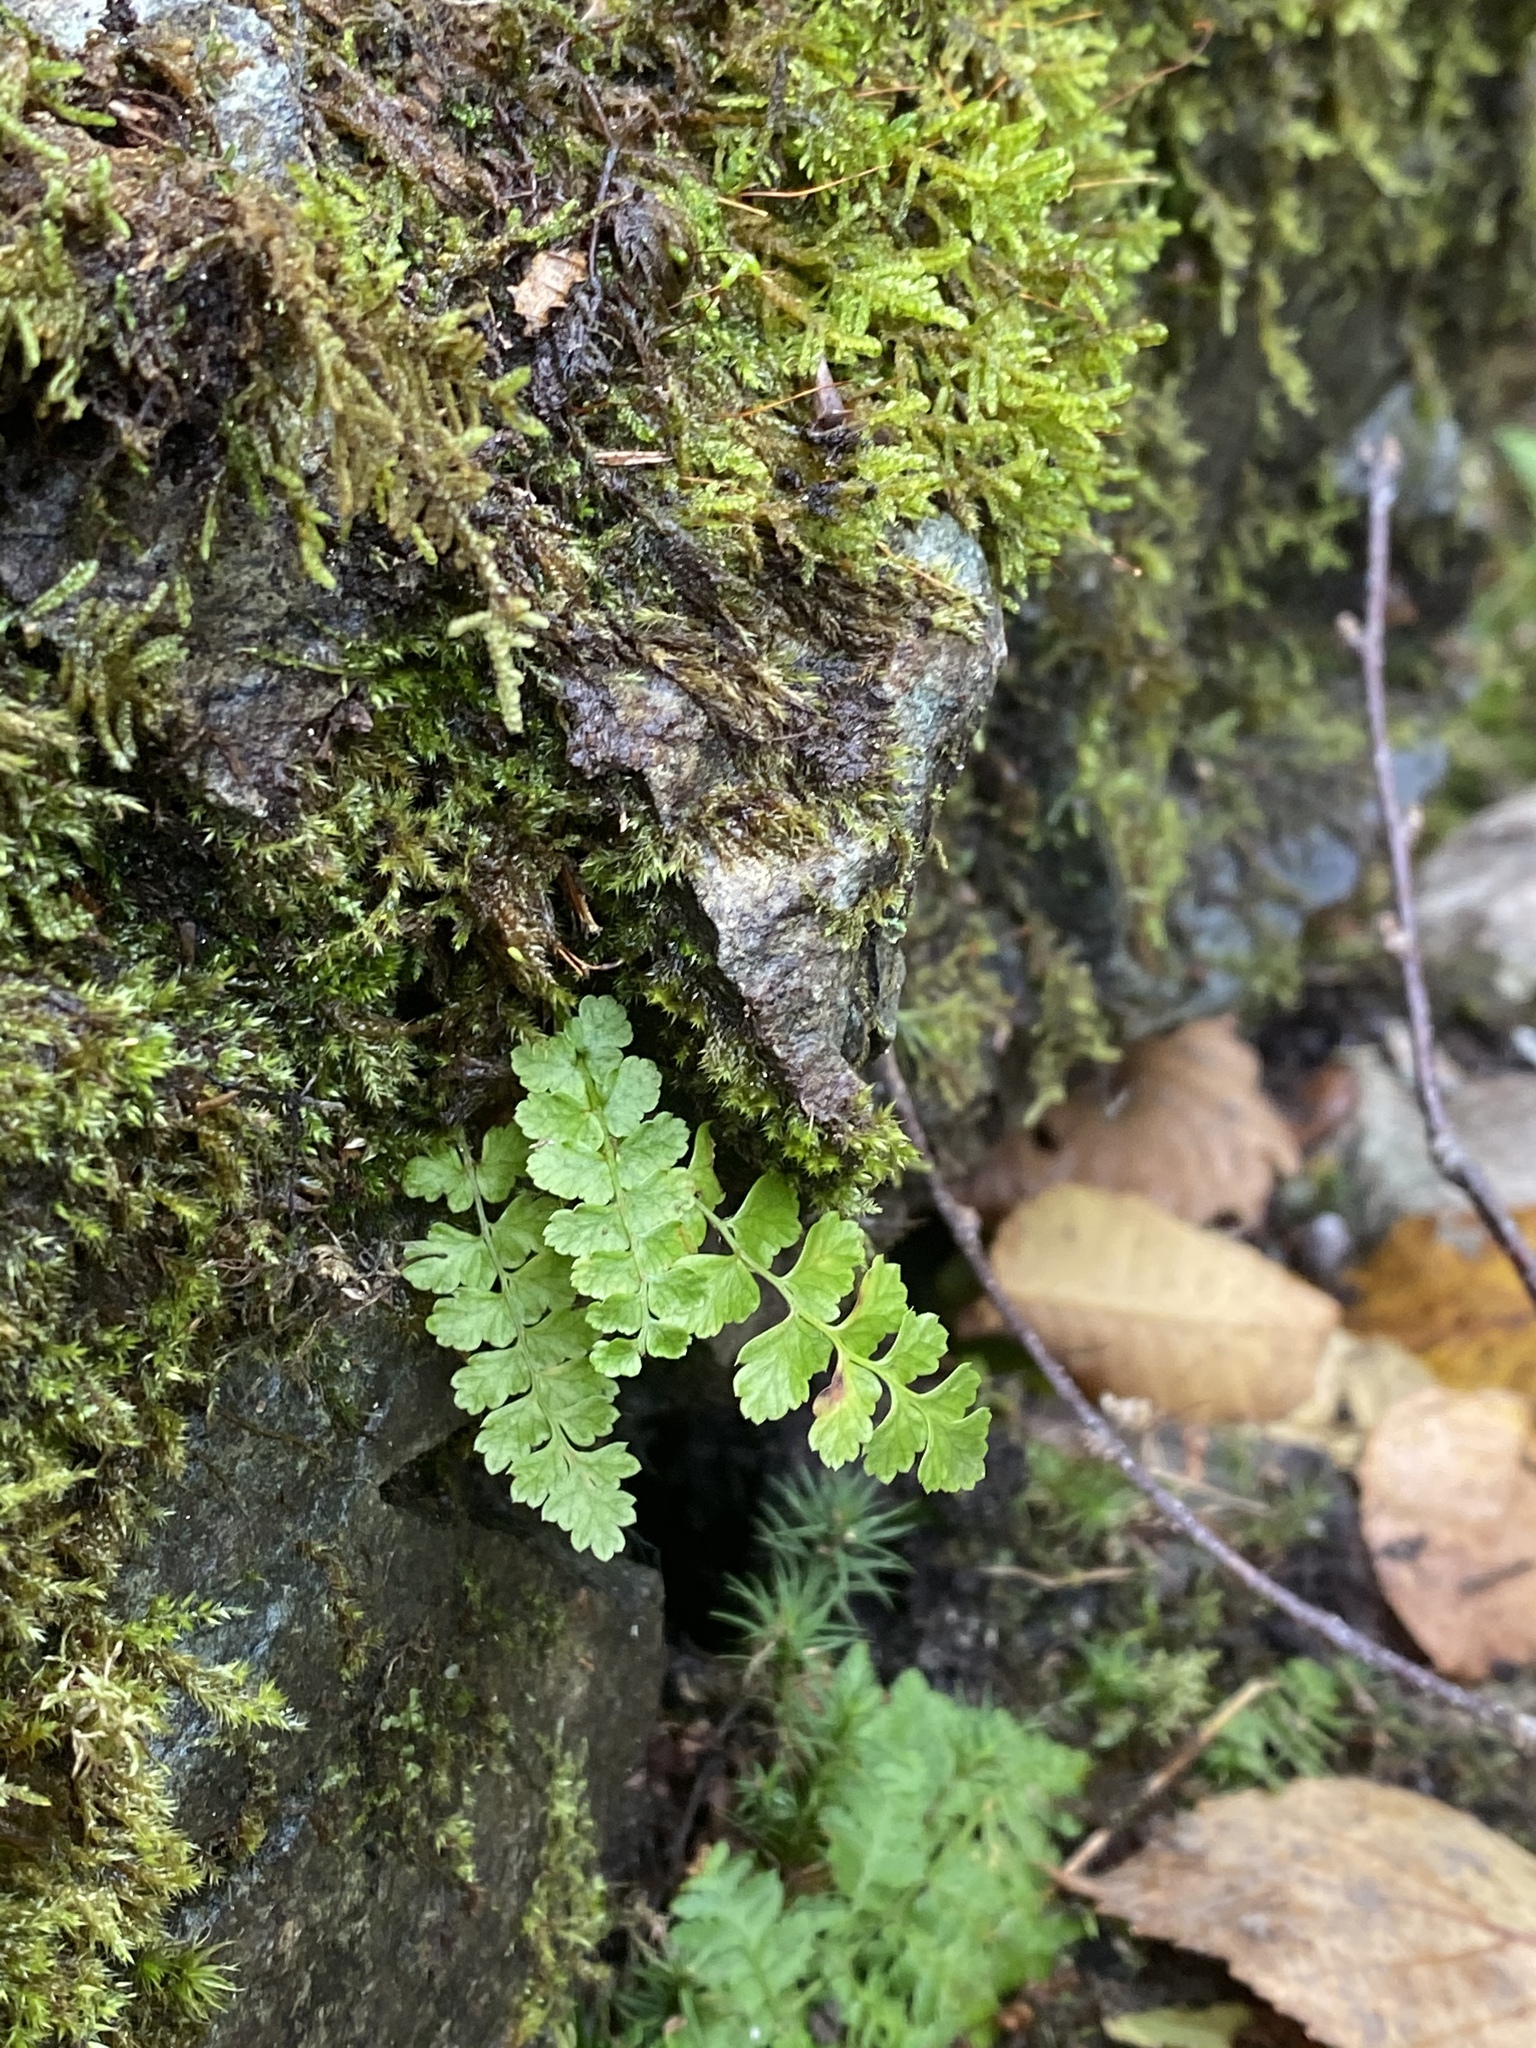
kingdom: Plantae
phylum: Tracheophyta
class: Polypodiopsida
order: Polypodiales
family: Dryopteridaceae
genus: Polystichum
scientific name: Polystichum braunii
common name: Braun's holly fern
